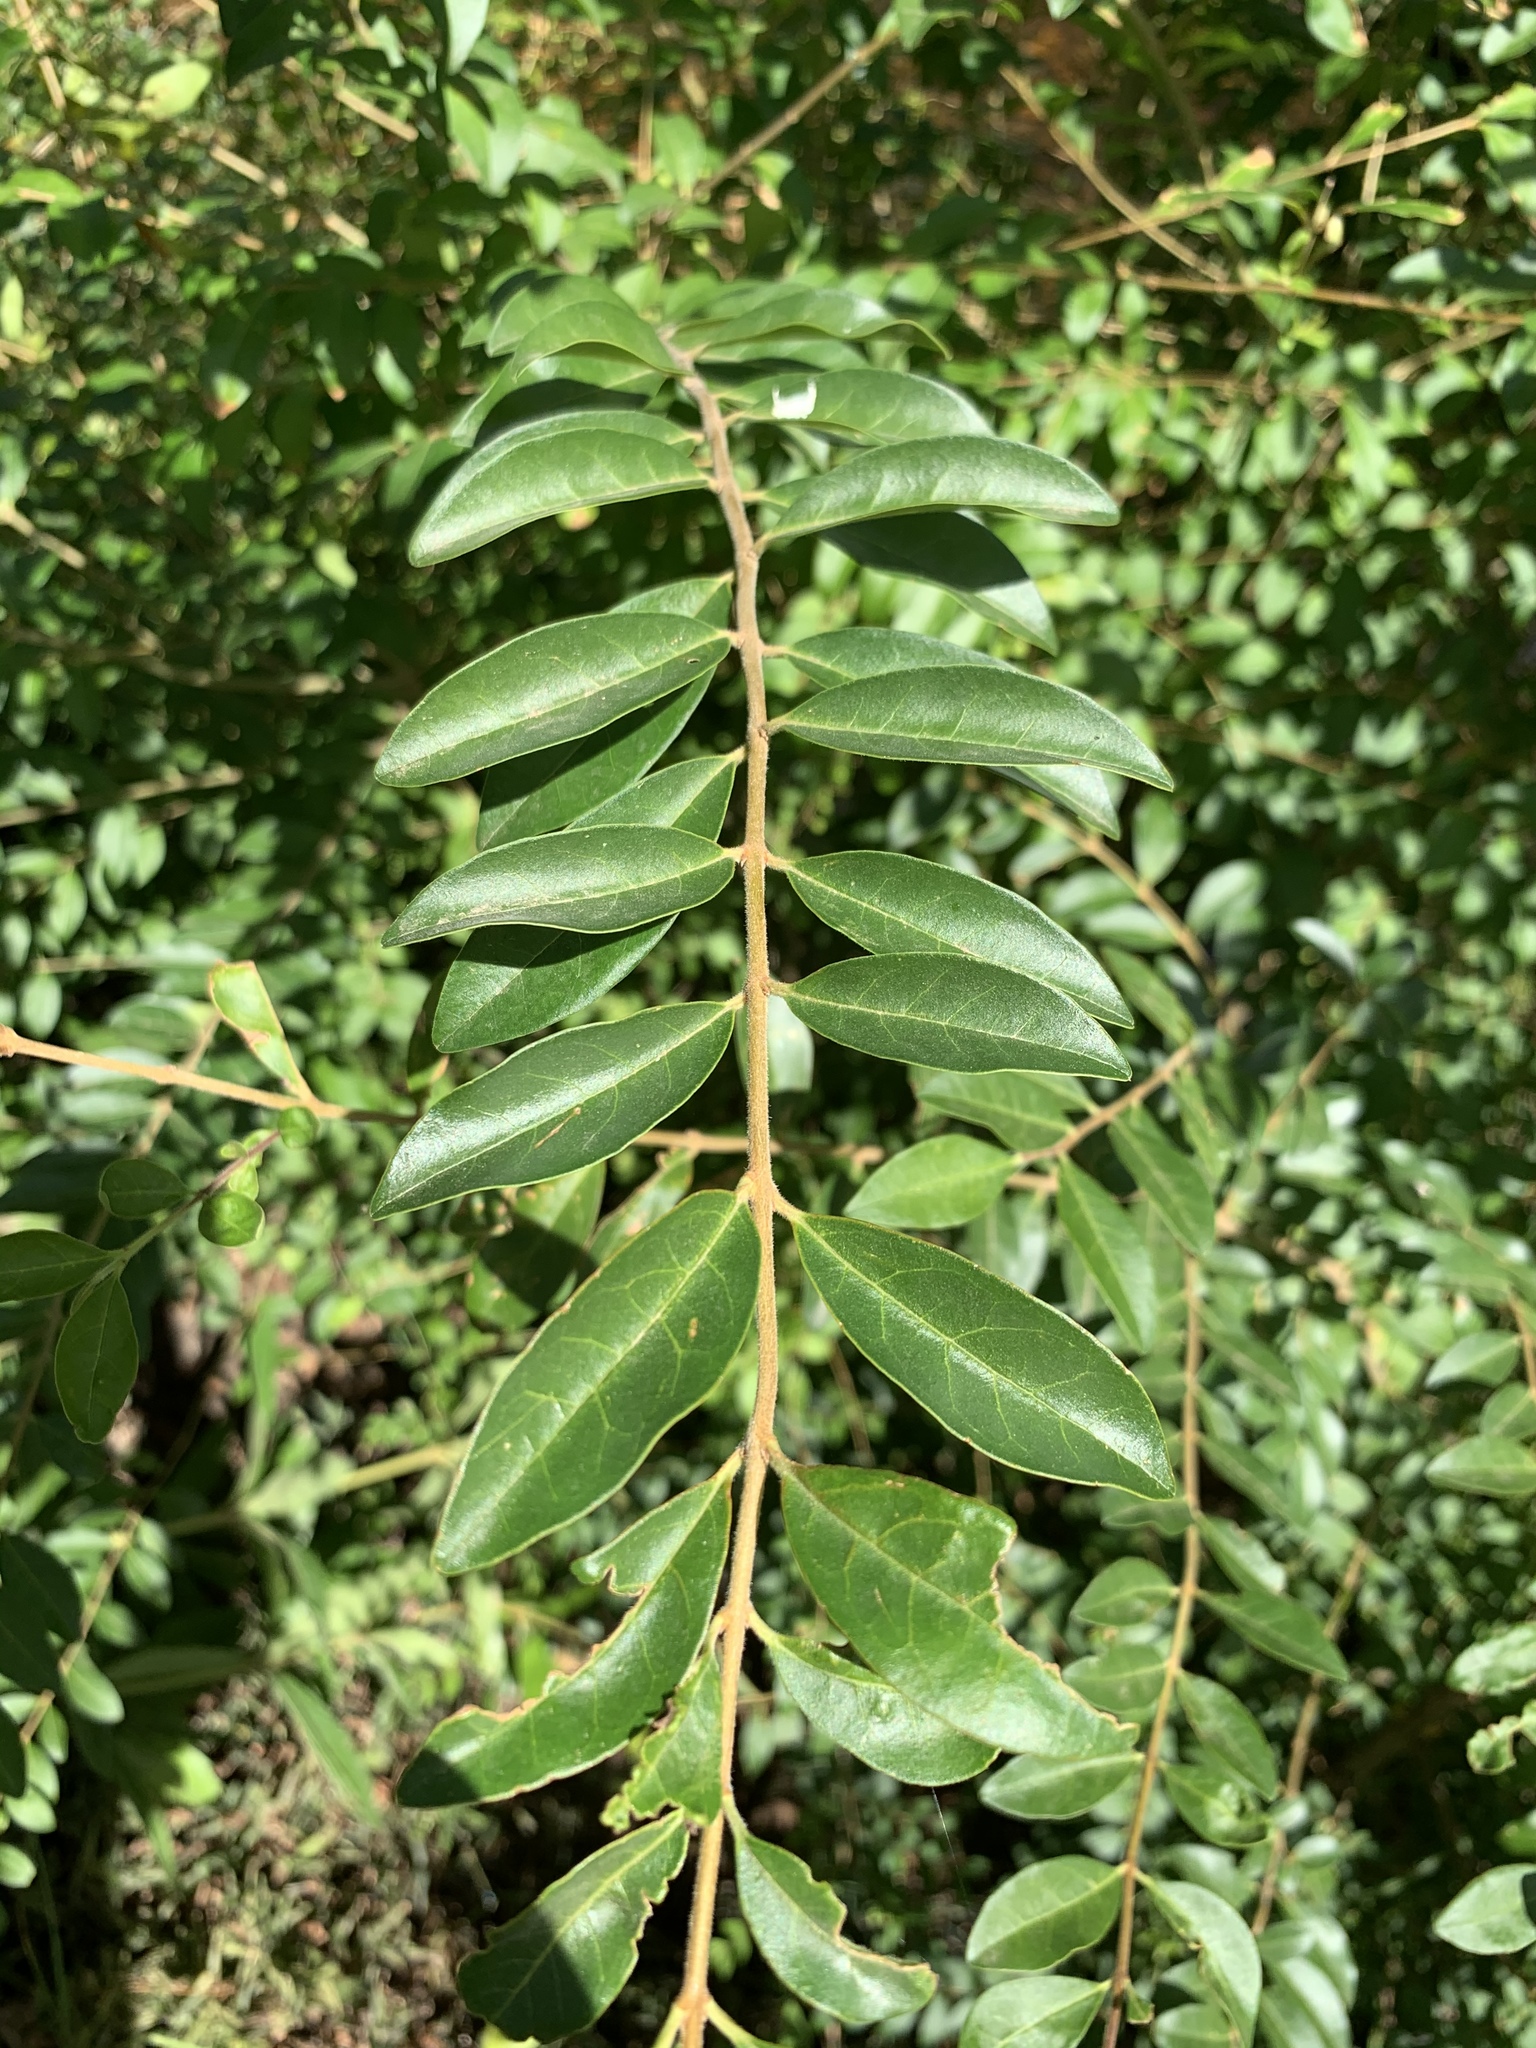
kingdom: Plantae
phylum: Tracheophyta
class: Magnoliopsida
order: Lamiales
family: Oleaceae
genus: Ligustrum
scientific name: Ligustrum sinense
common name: Chinese privet
